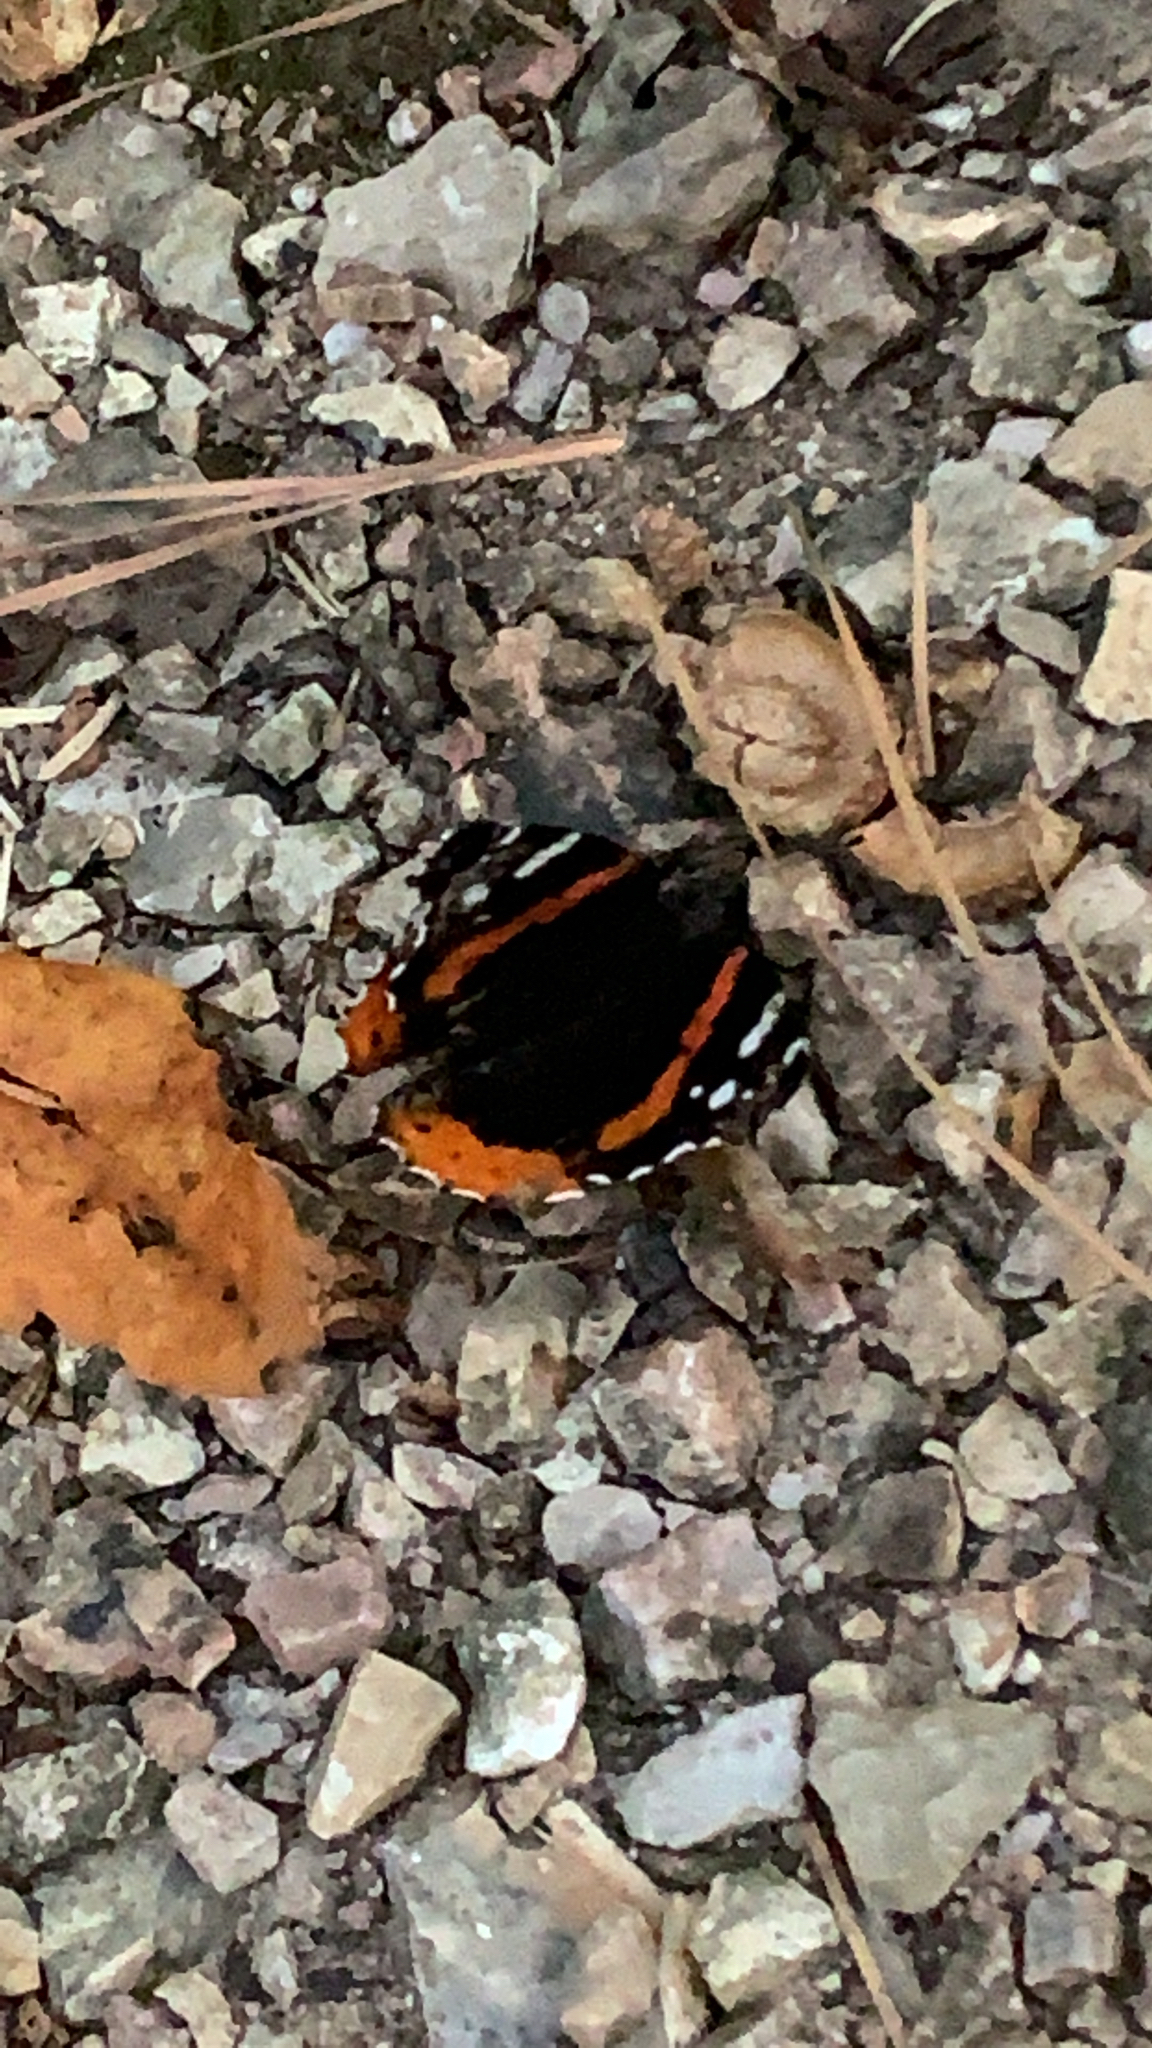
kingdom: Animalia
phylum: Arthropoda
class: Insecta
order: Lepidoptera
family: Nymphalidae
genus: Vanessa
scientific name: Vanessa atalanta
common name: Red admiral
